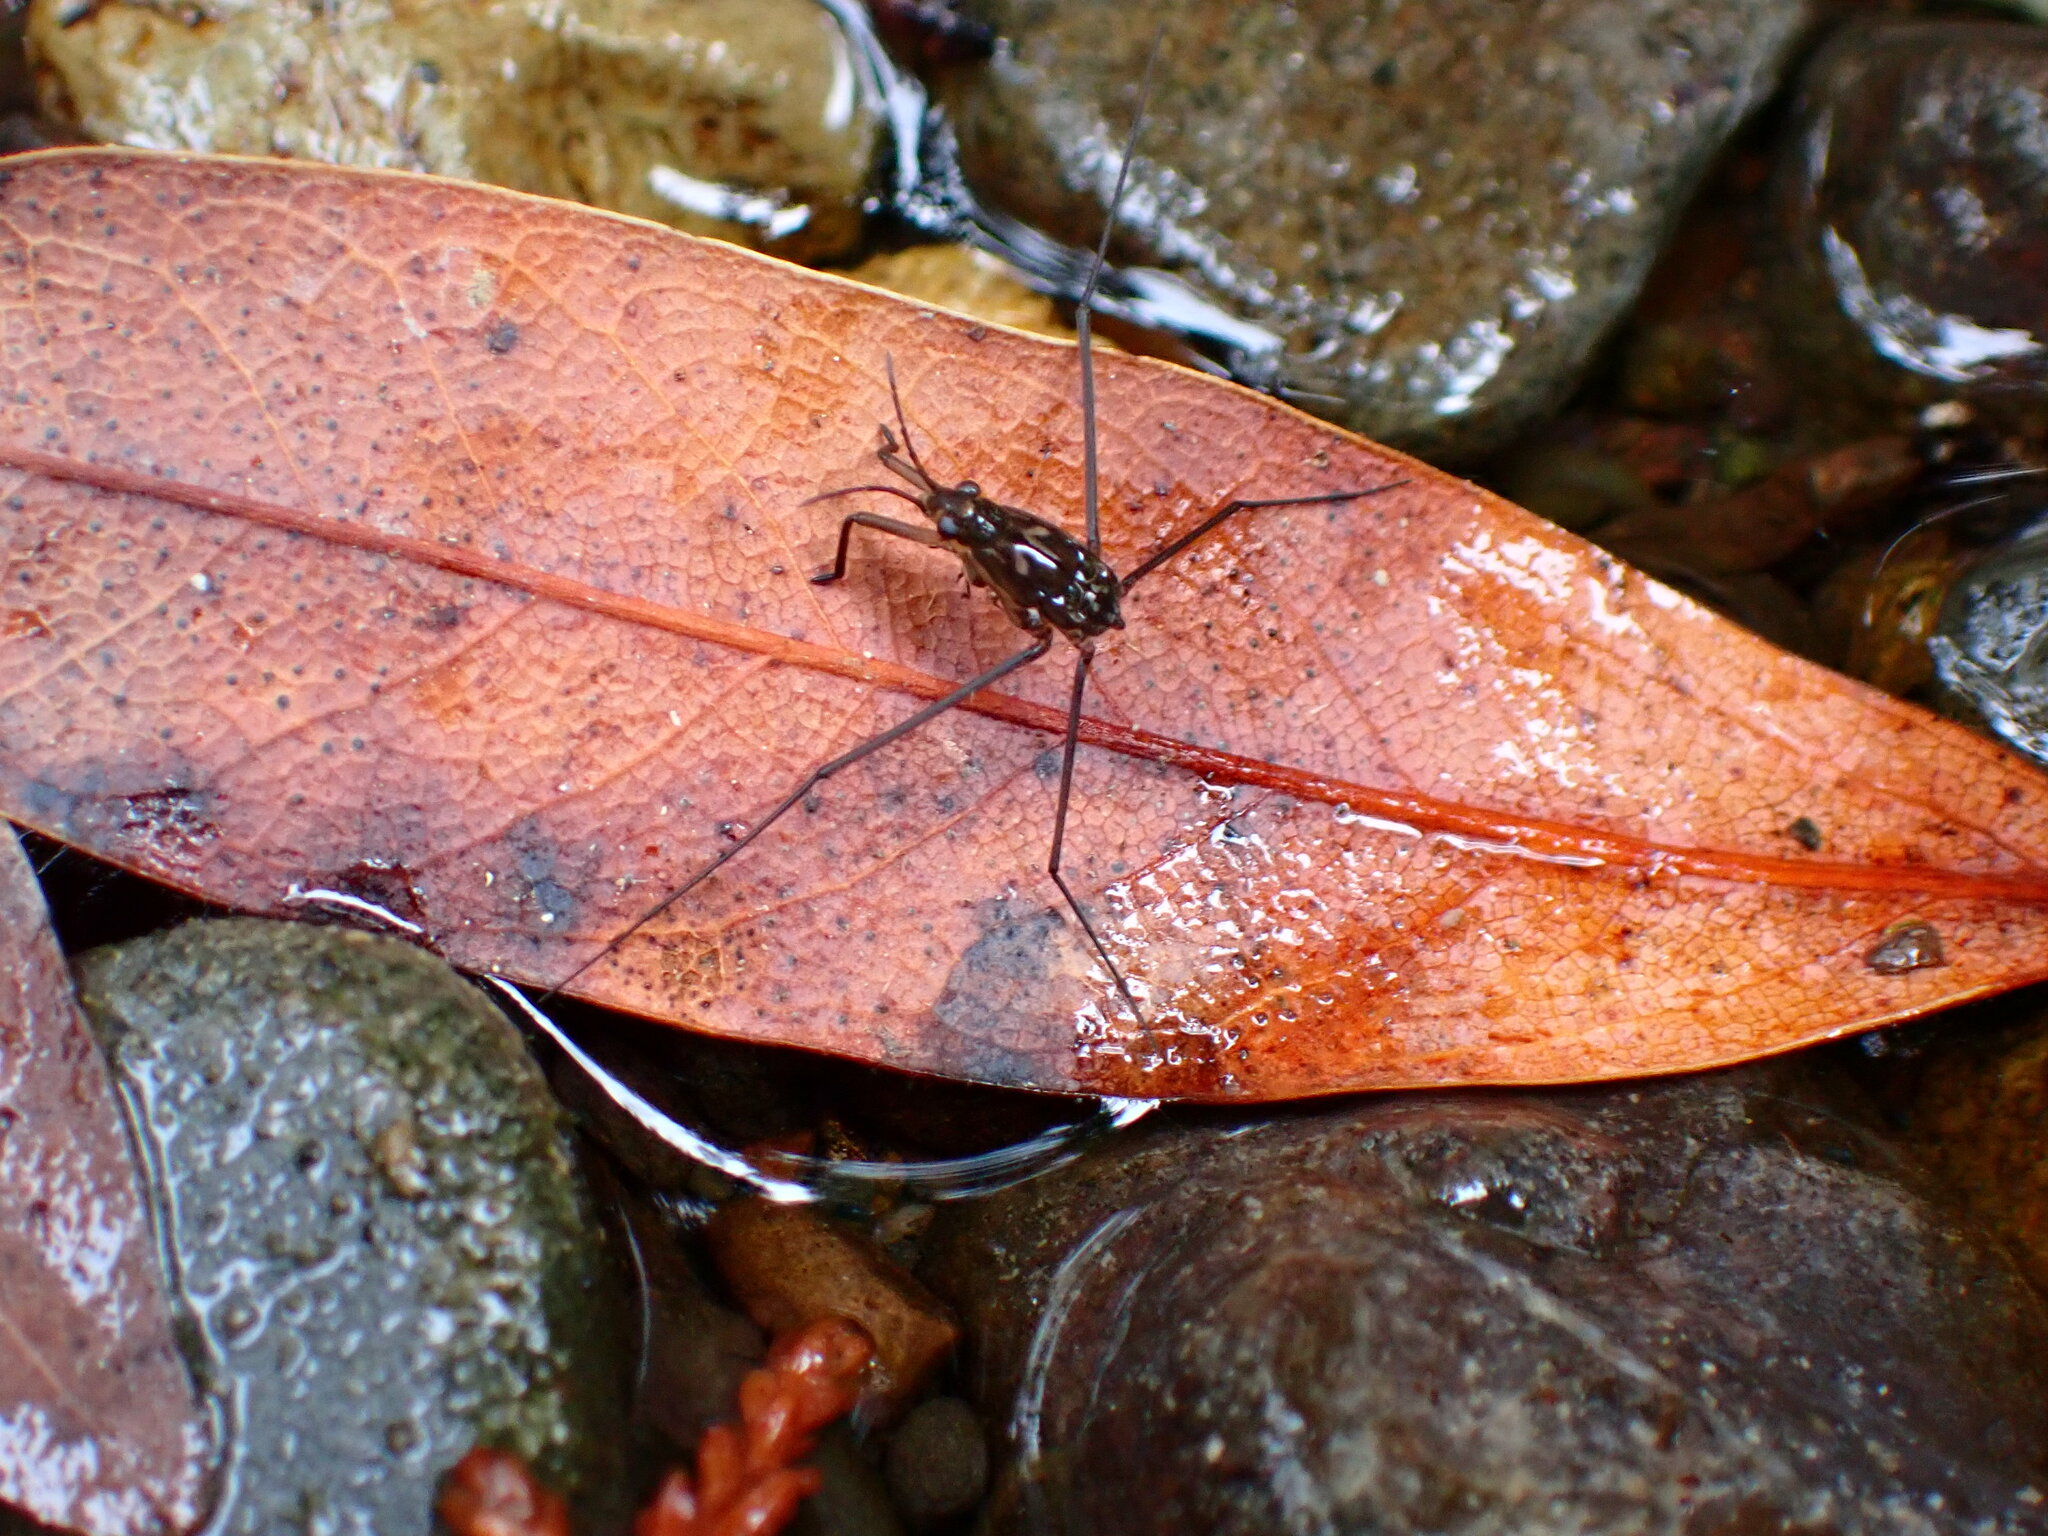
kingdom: Animalia
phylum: Arthropoda
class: Insecta
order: Hemiptera
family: Gerridae
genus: Aquarius
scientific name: Aquarius remigis
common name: Common water strider
